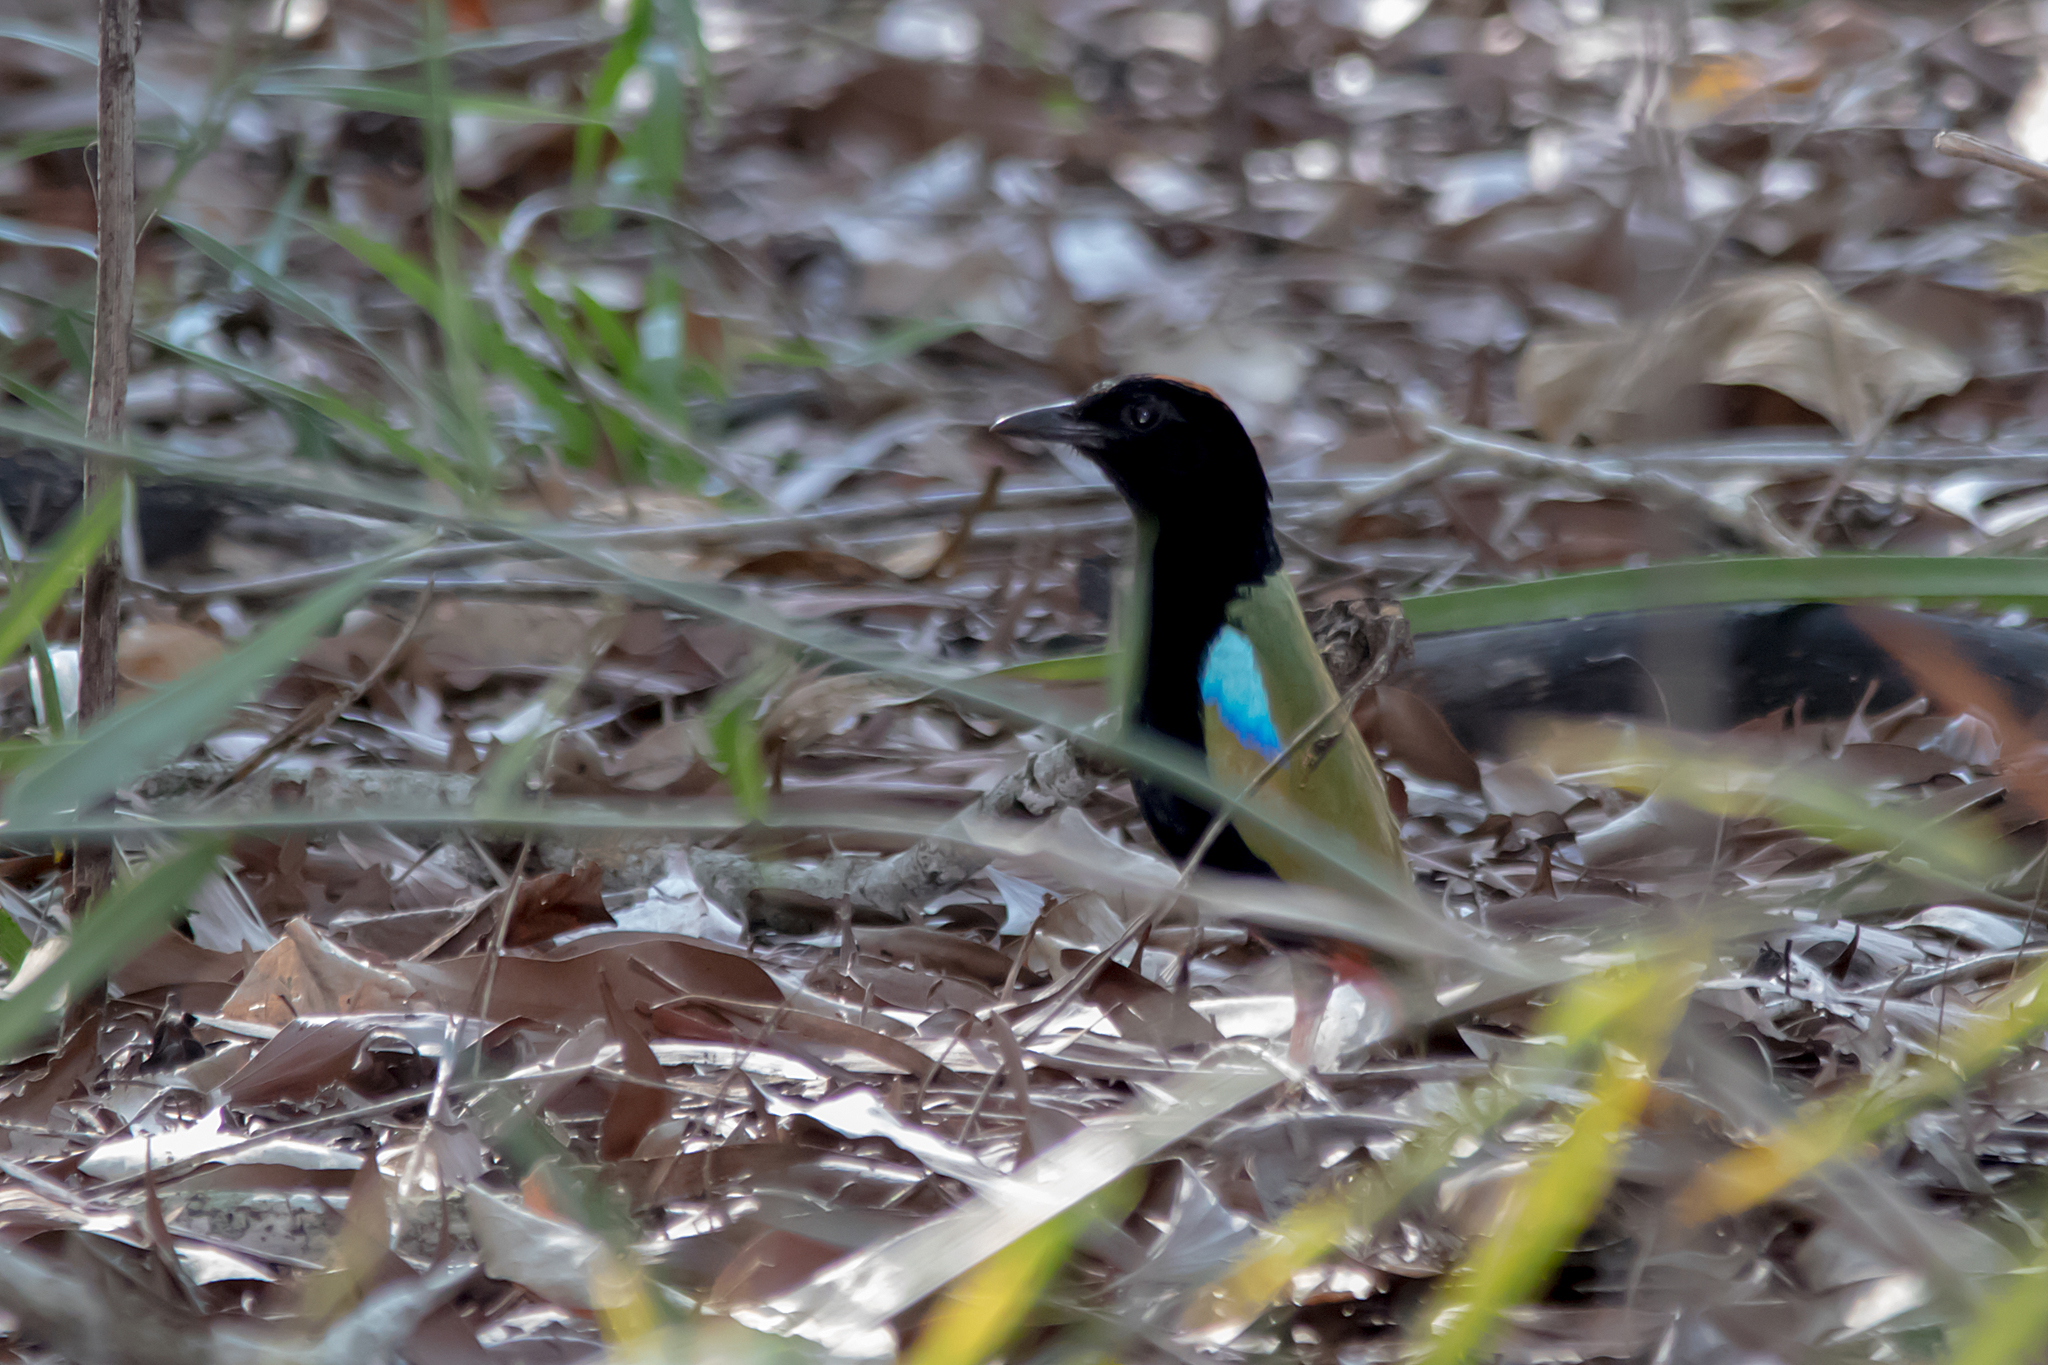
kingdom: Animalia
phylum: Chordata
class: Aves
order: Passeriformes
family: Pittidae
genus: Pitta
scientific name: Pitta iris
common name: Rainbow pitta
